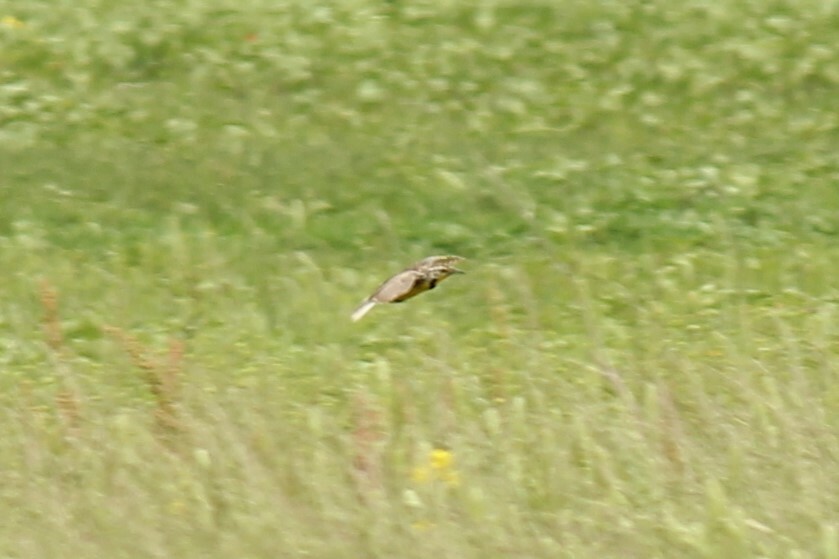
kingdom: Animalia
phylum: Chordata
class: Aves
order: Passeriformes
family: Icteridae
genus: Sturnella
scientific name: Sturnella neglecta
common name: Western meadowlark
